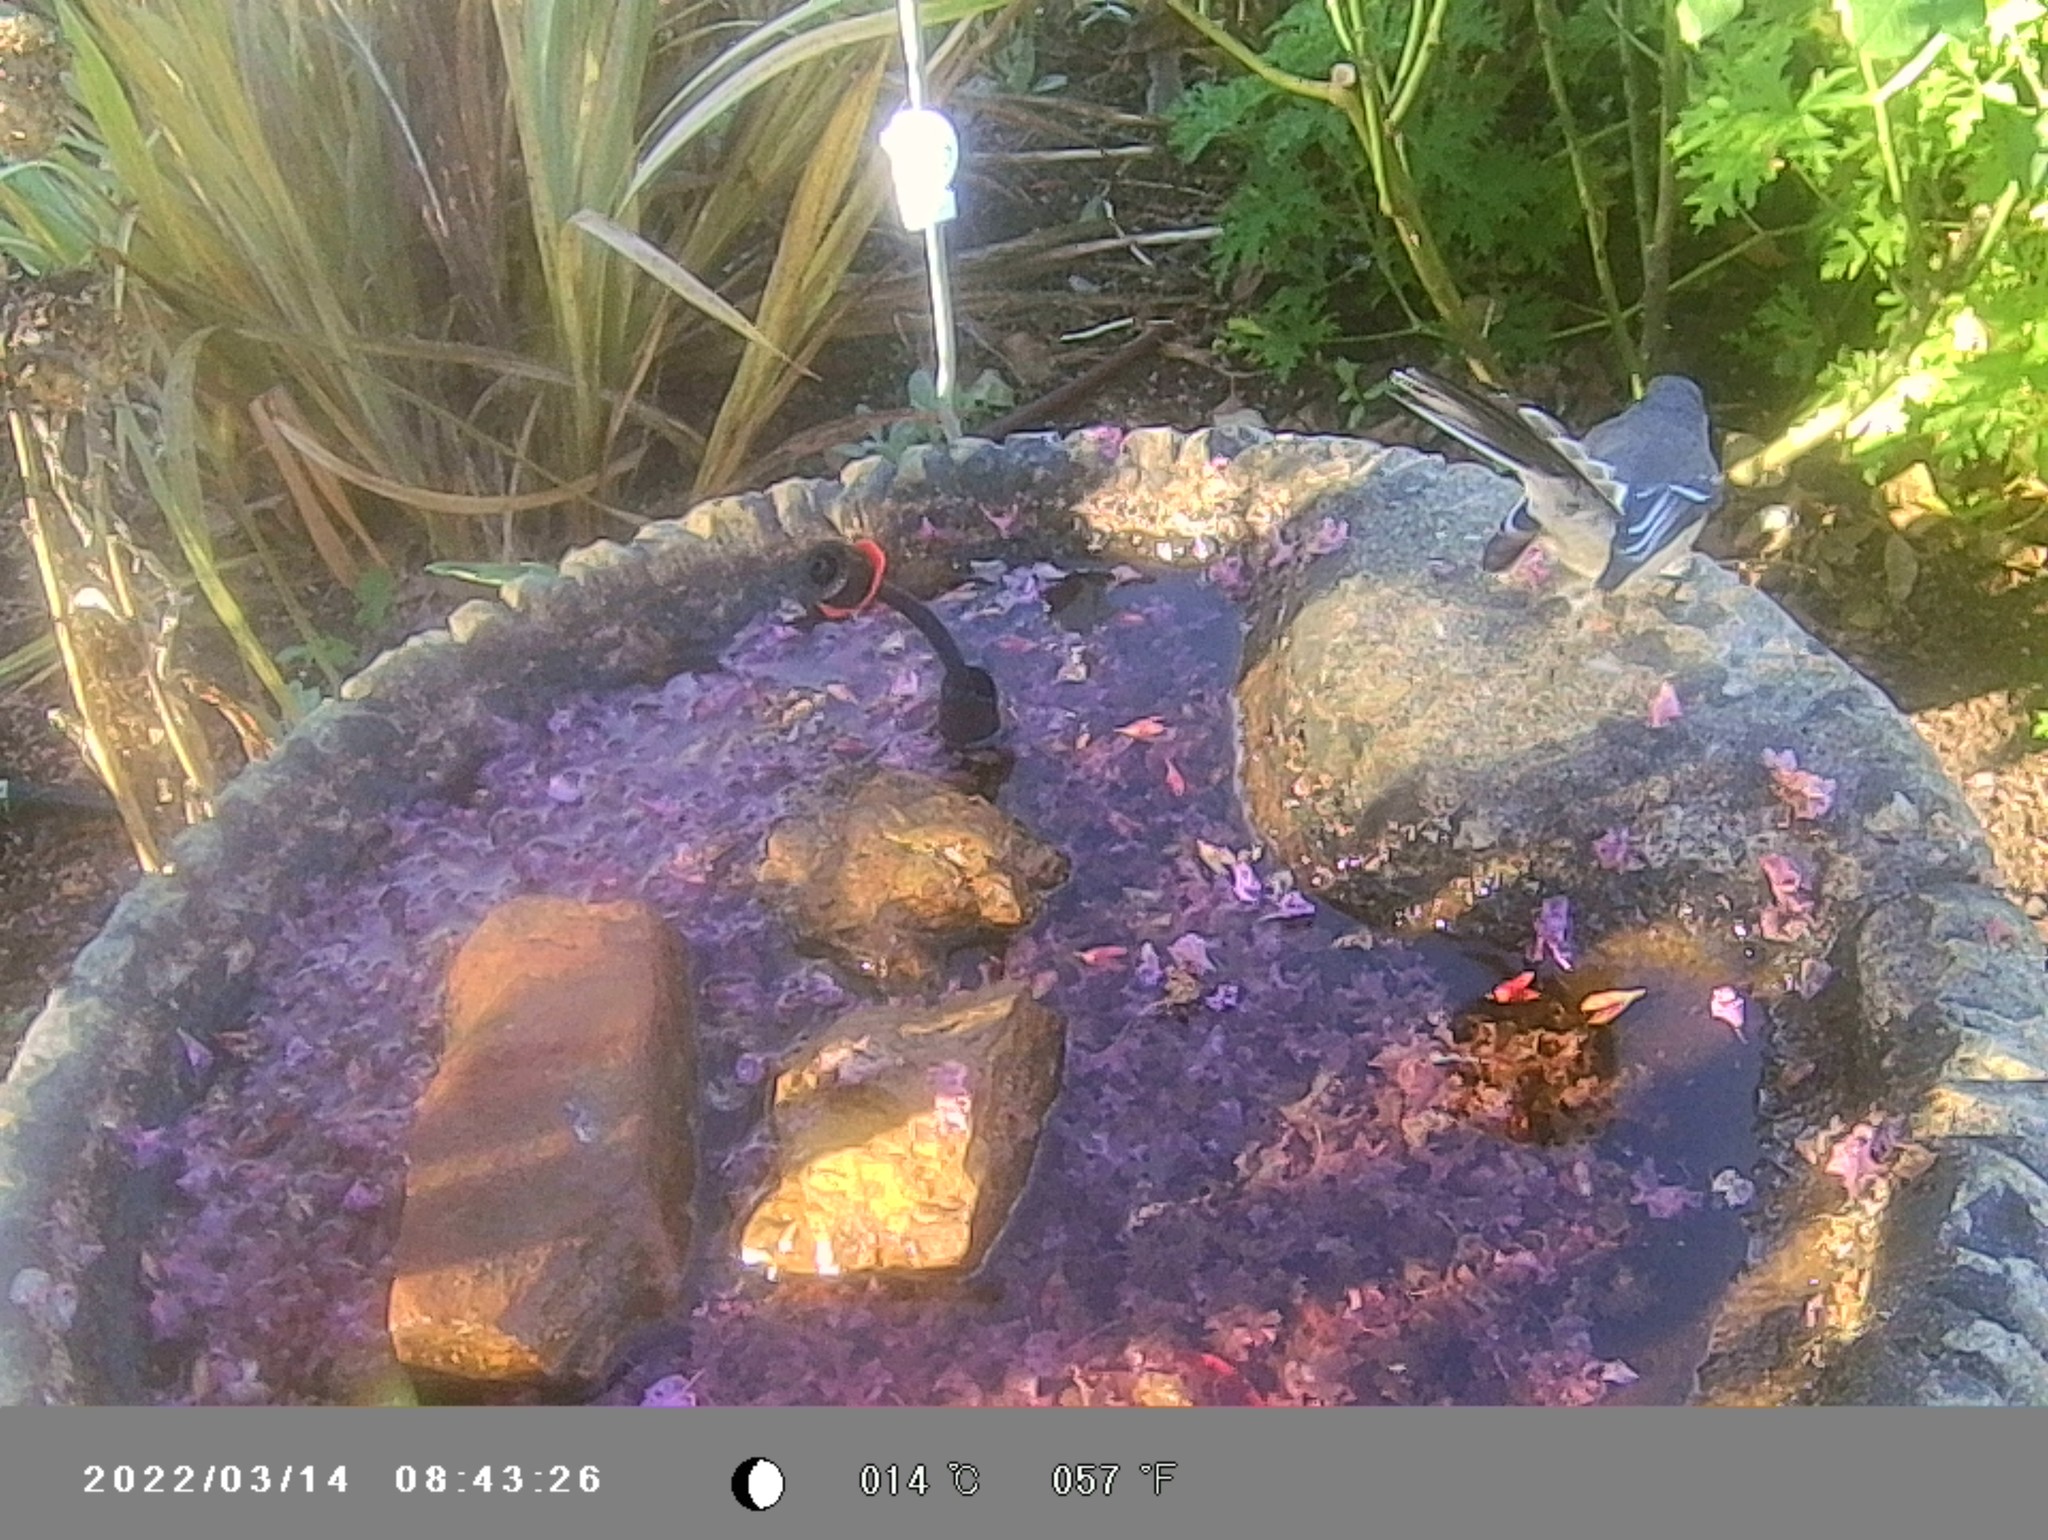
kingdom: Animalia
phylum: Chordata
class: Aves
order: Passeriformes
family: Rhipiduridae
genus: Rhipidura
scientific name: Rhipidura albiscapa
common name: Grey fantail
